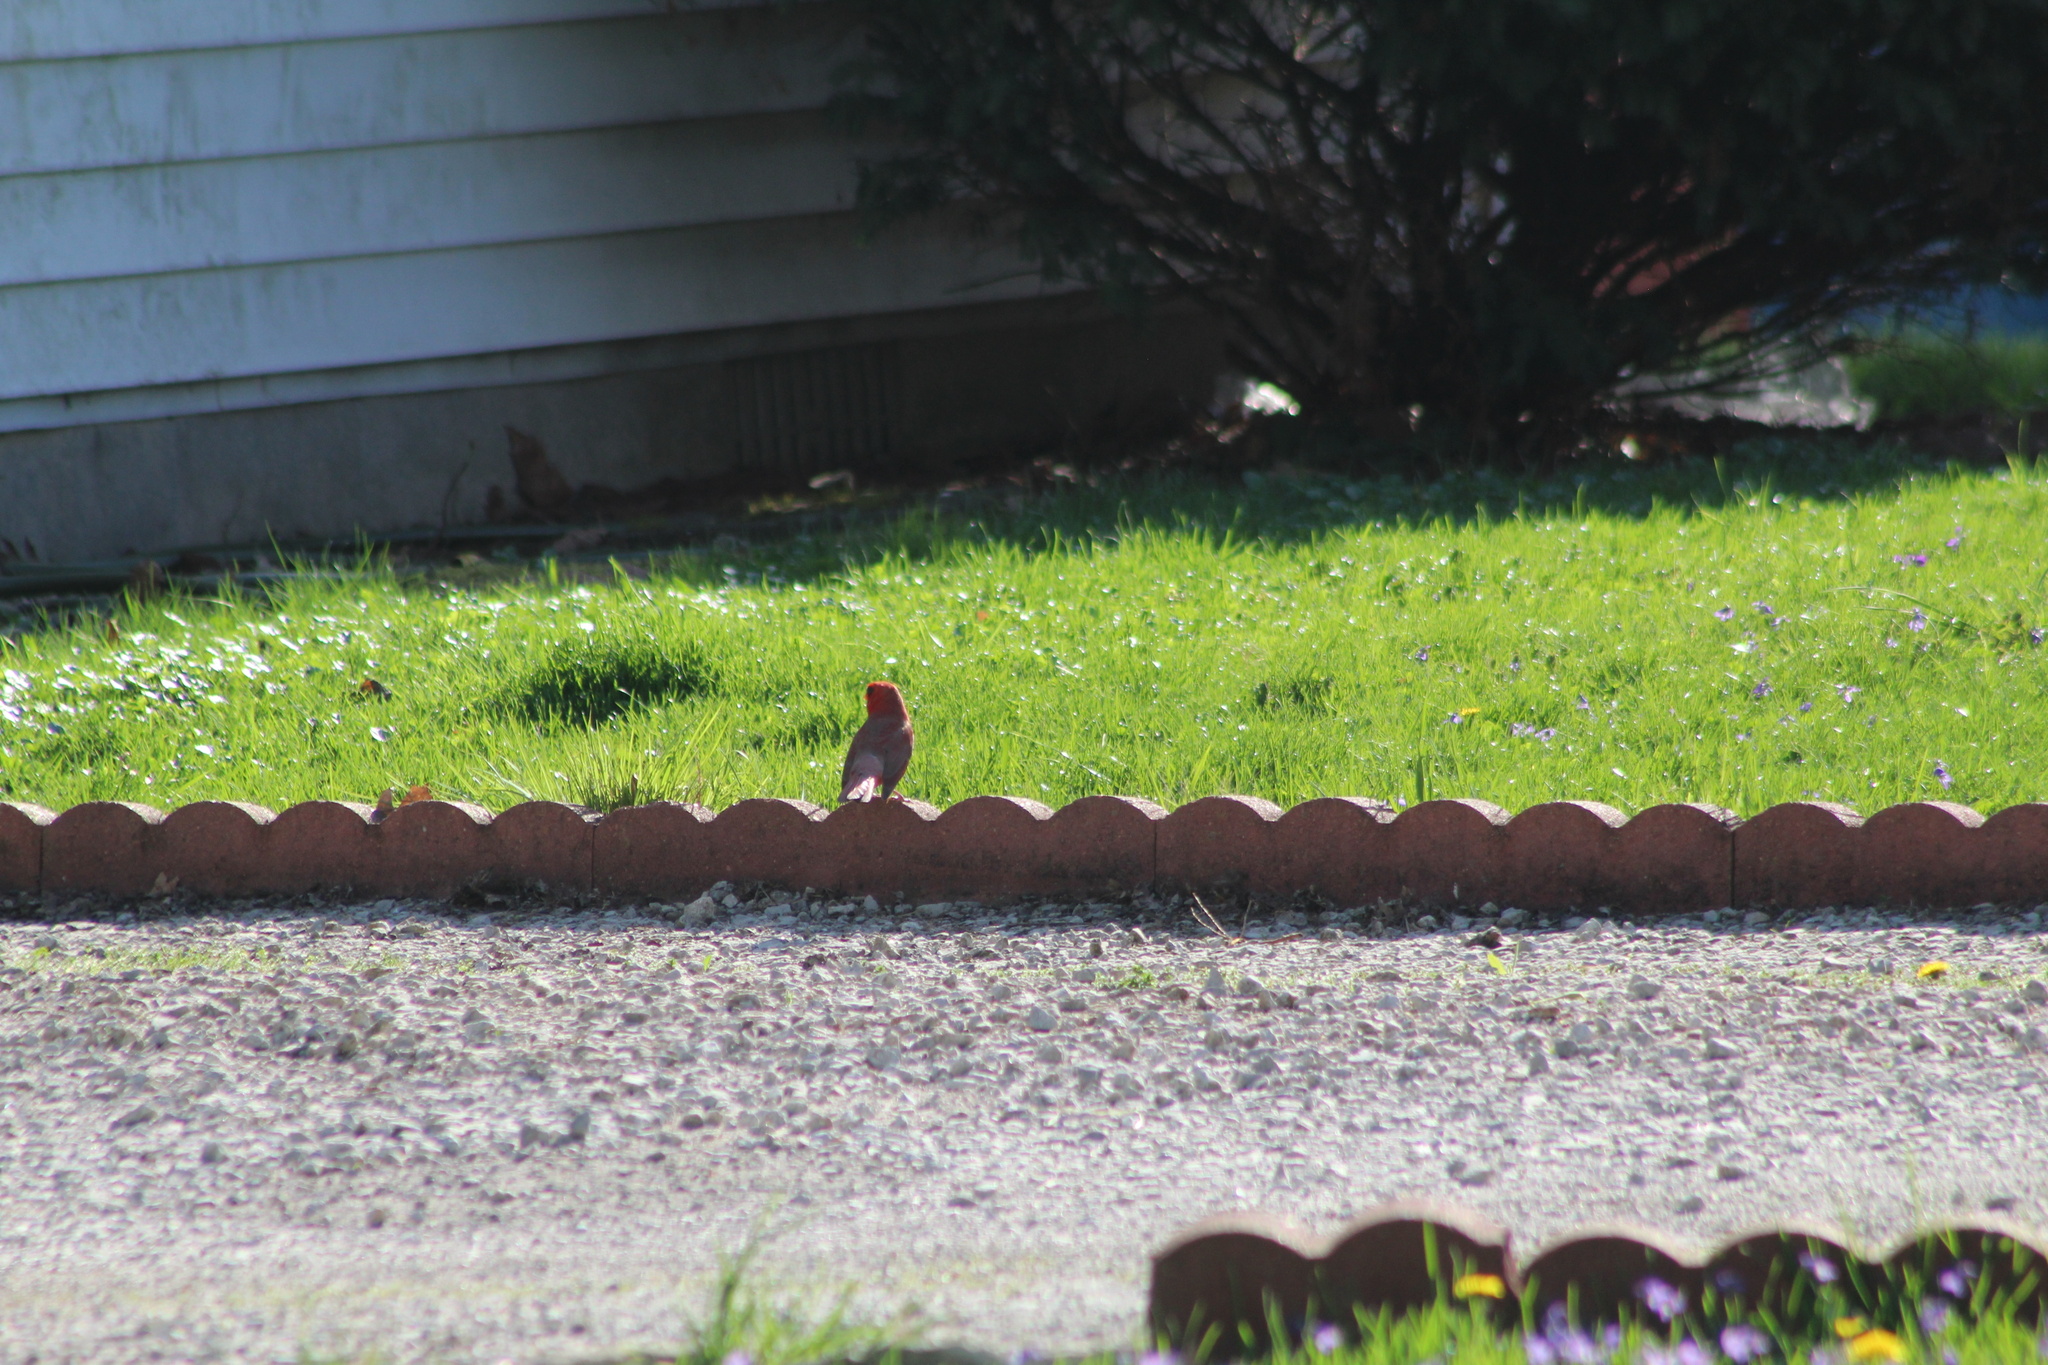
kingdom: Animalia
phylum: Chordata
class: Aves
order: Passeriformes
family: Cardinalidae
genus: Cardinalis
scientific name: Cardinalis cardinalis
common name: Northern cardinal
